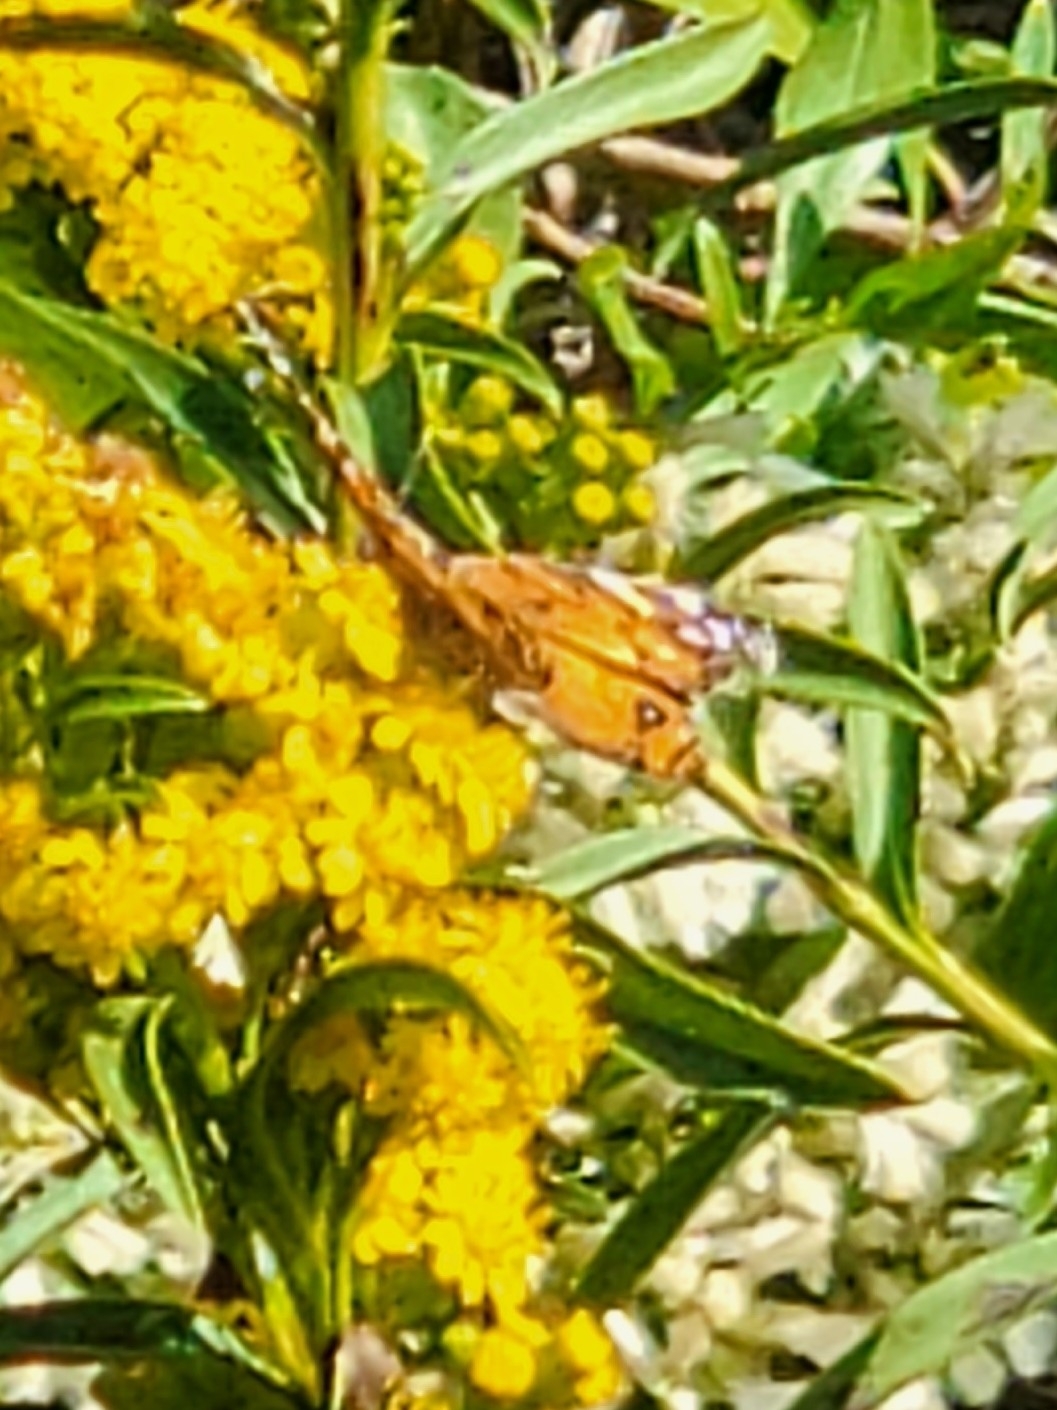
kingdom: Animalia
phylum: Arthropoda
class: Insecta
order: Lepidoptera
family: Nymphalidae
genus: Vanessa
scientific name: Vanessa virginiensis
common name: American lady
